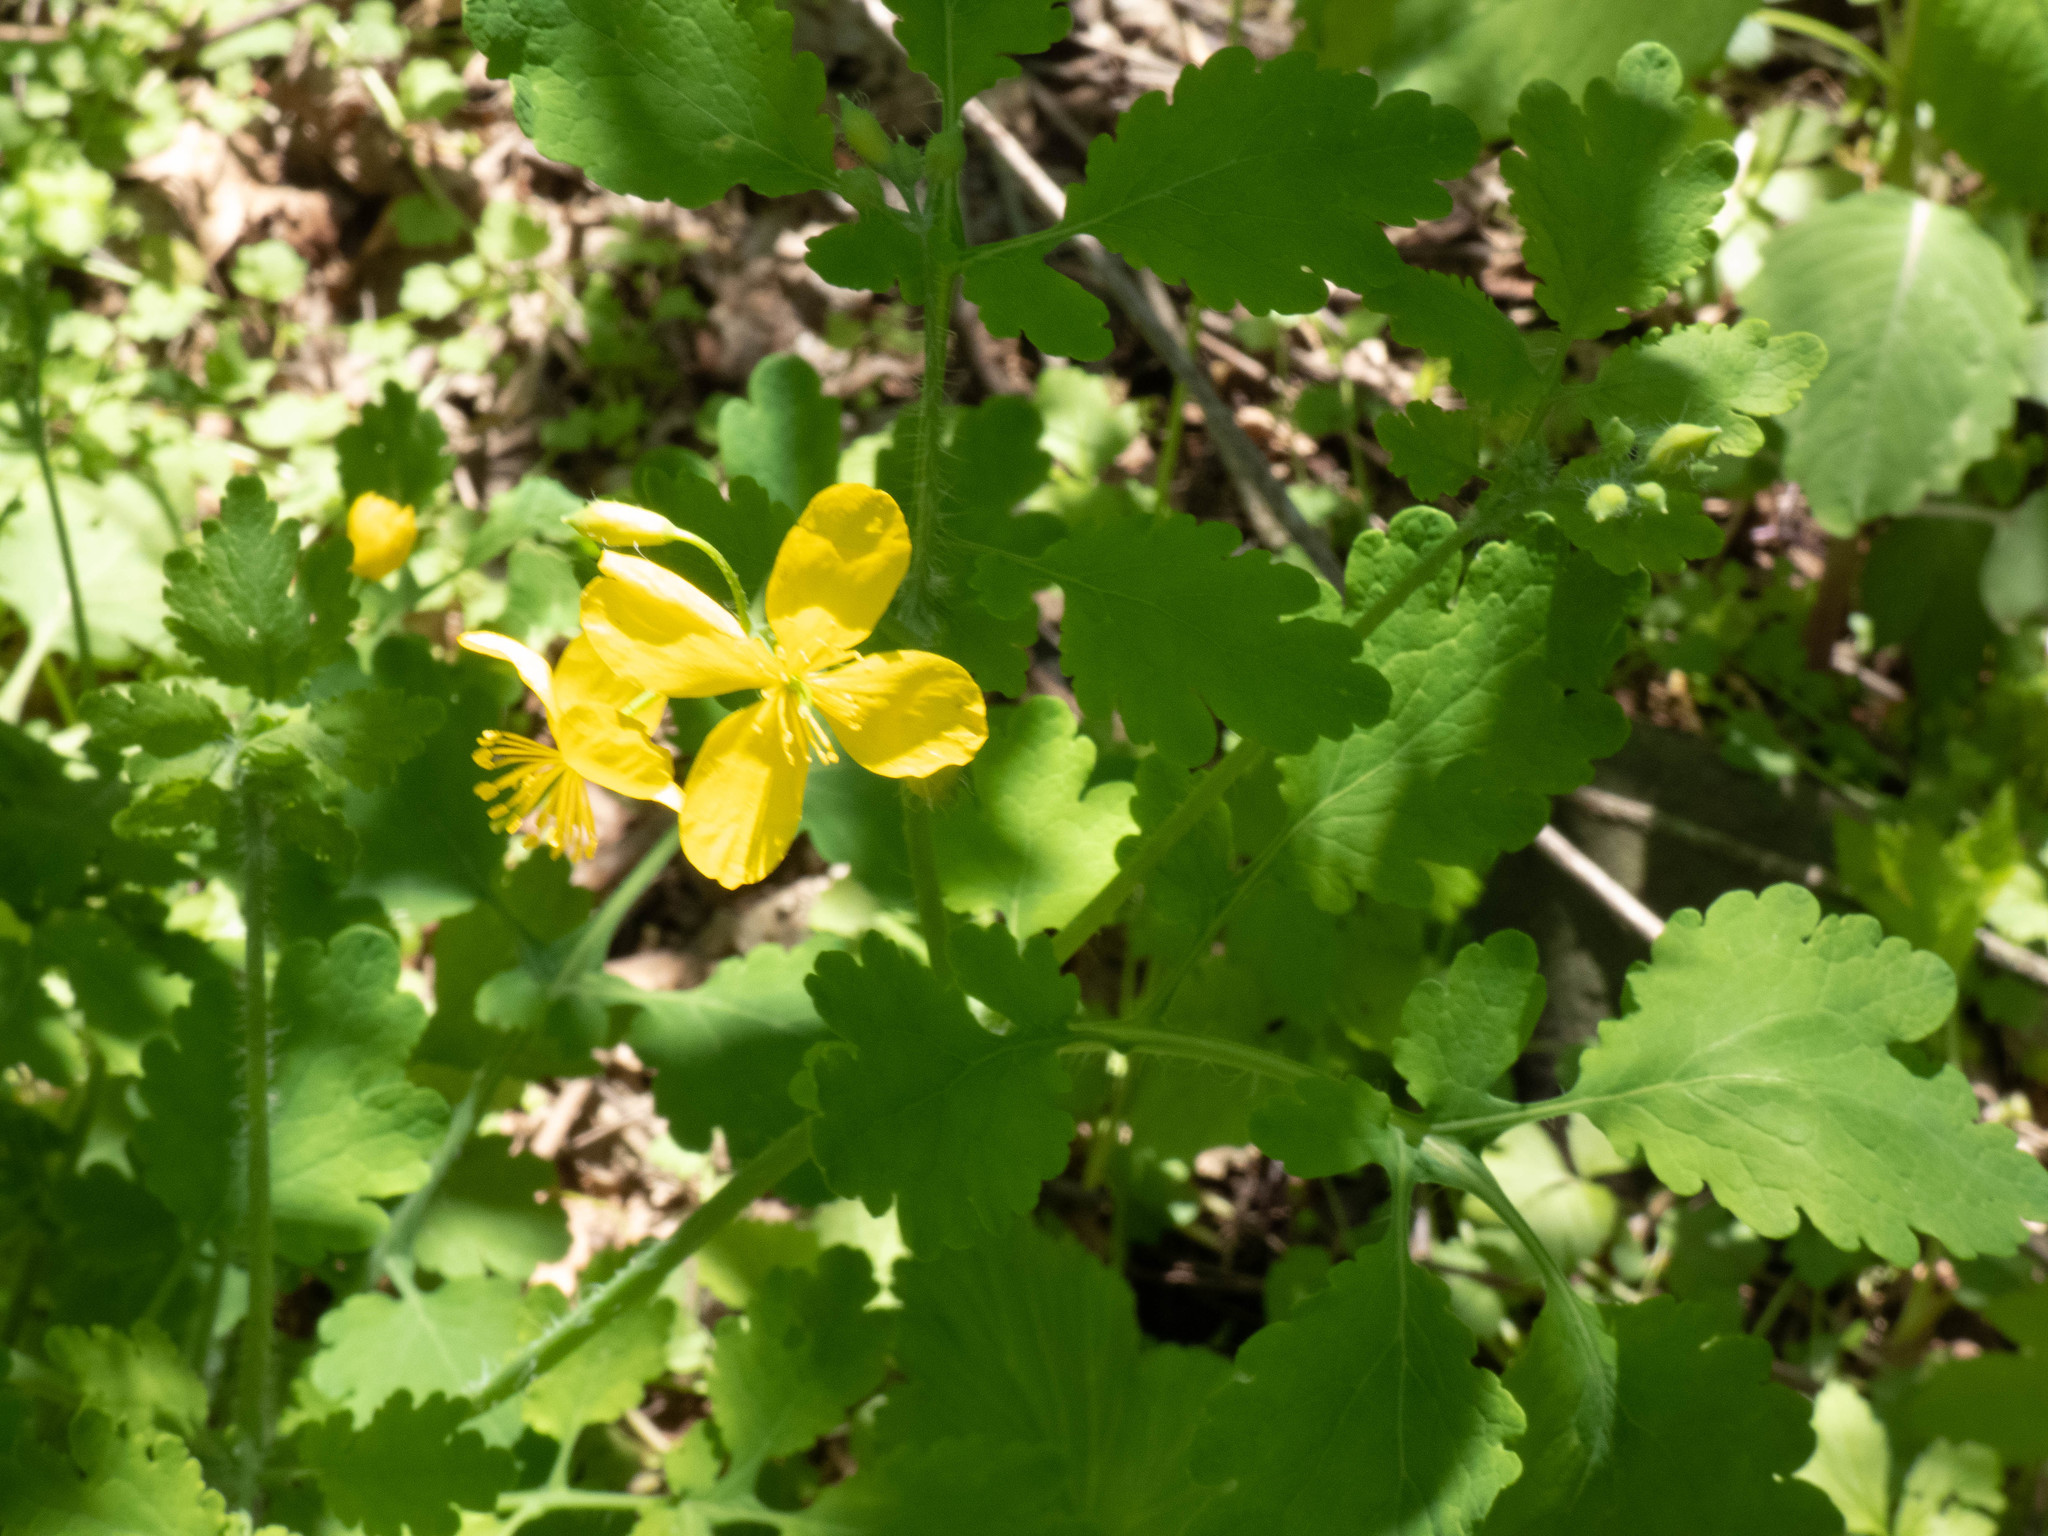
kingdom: Plantae
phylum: Tracheophyta
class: Magnoliopsida
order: Ranunculales
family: Papaveraceae
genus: Chelidonium
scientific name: Chelidonium majus
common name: Greater celandine
